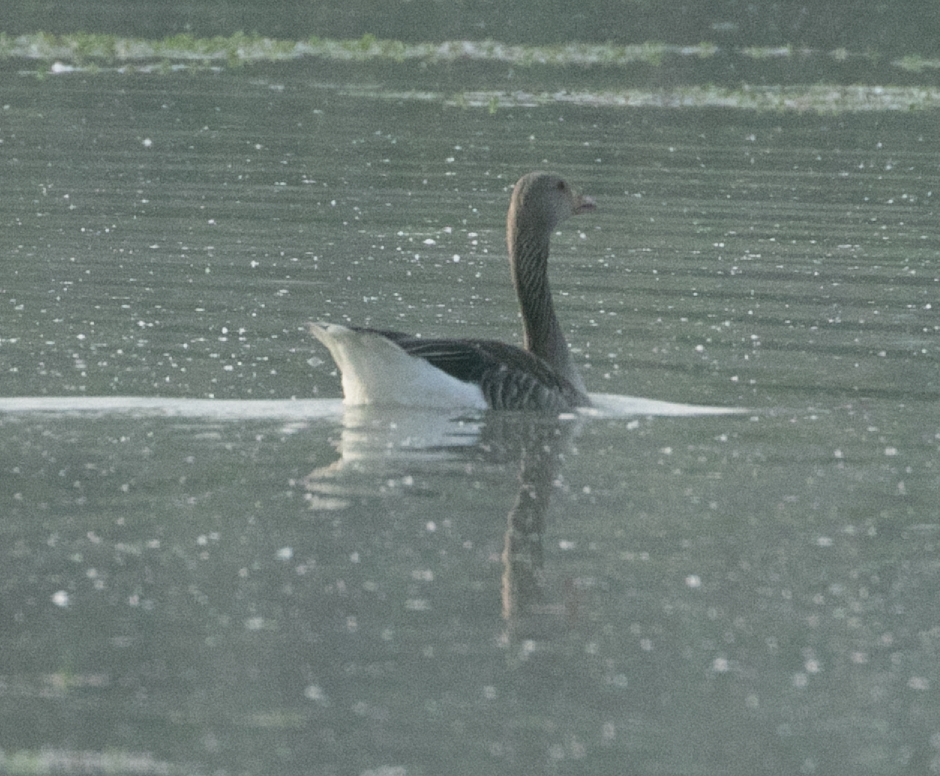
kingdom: Animalia
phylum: Chordata
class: Aves
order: Anseriformes
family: Anatidae
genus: Anser
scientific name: Anser anser
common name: Greylag goose
